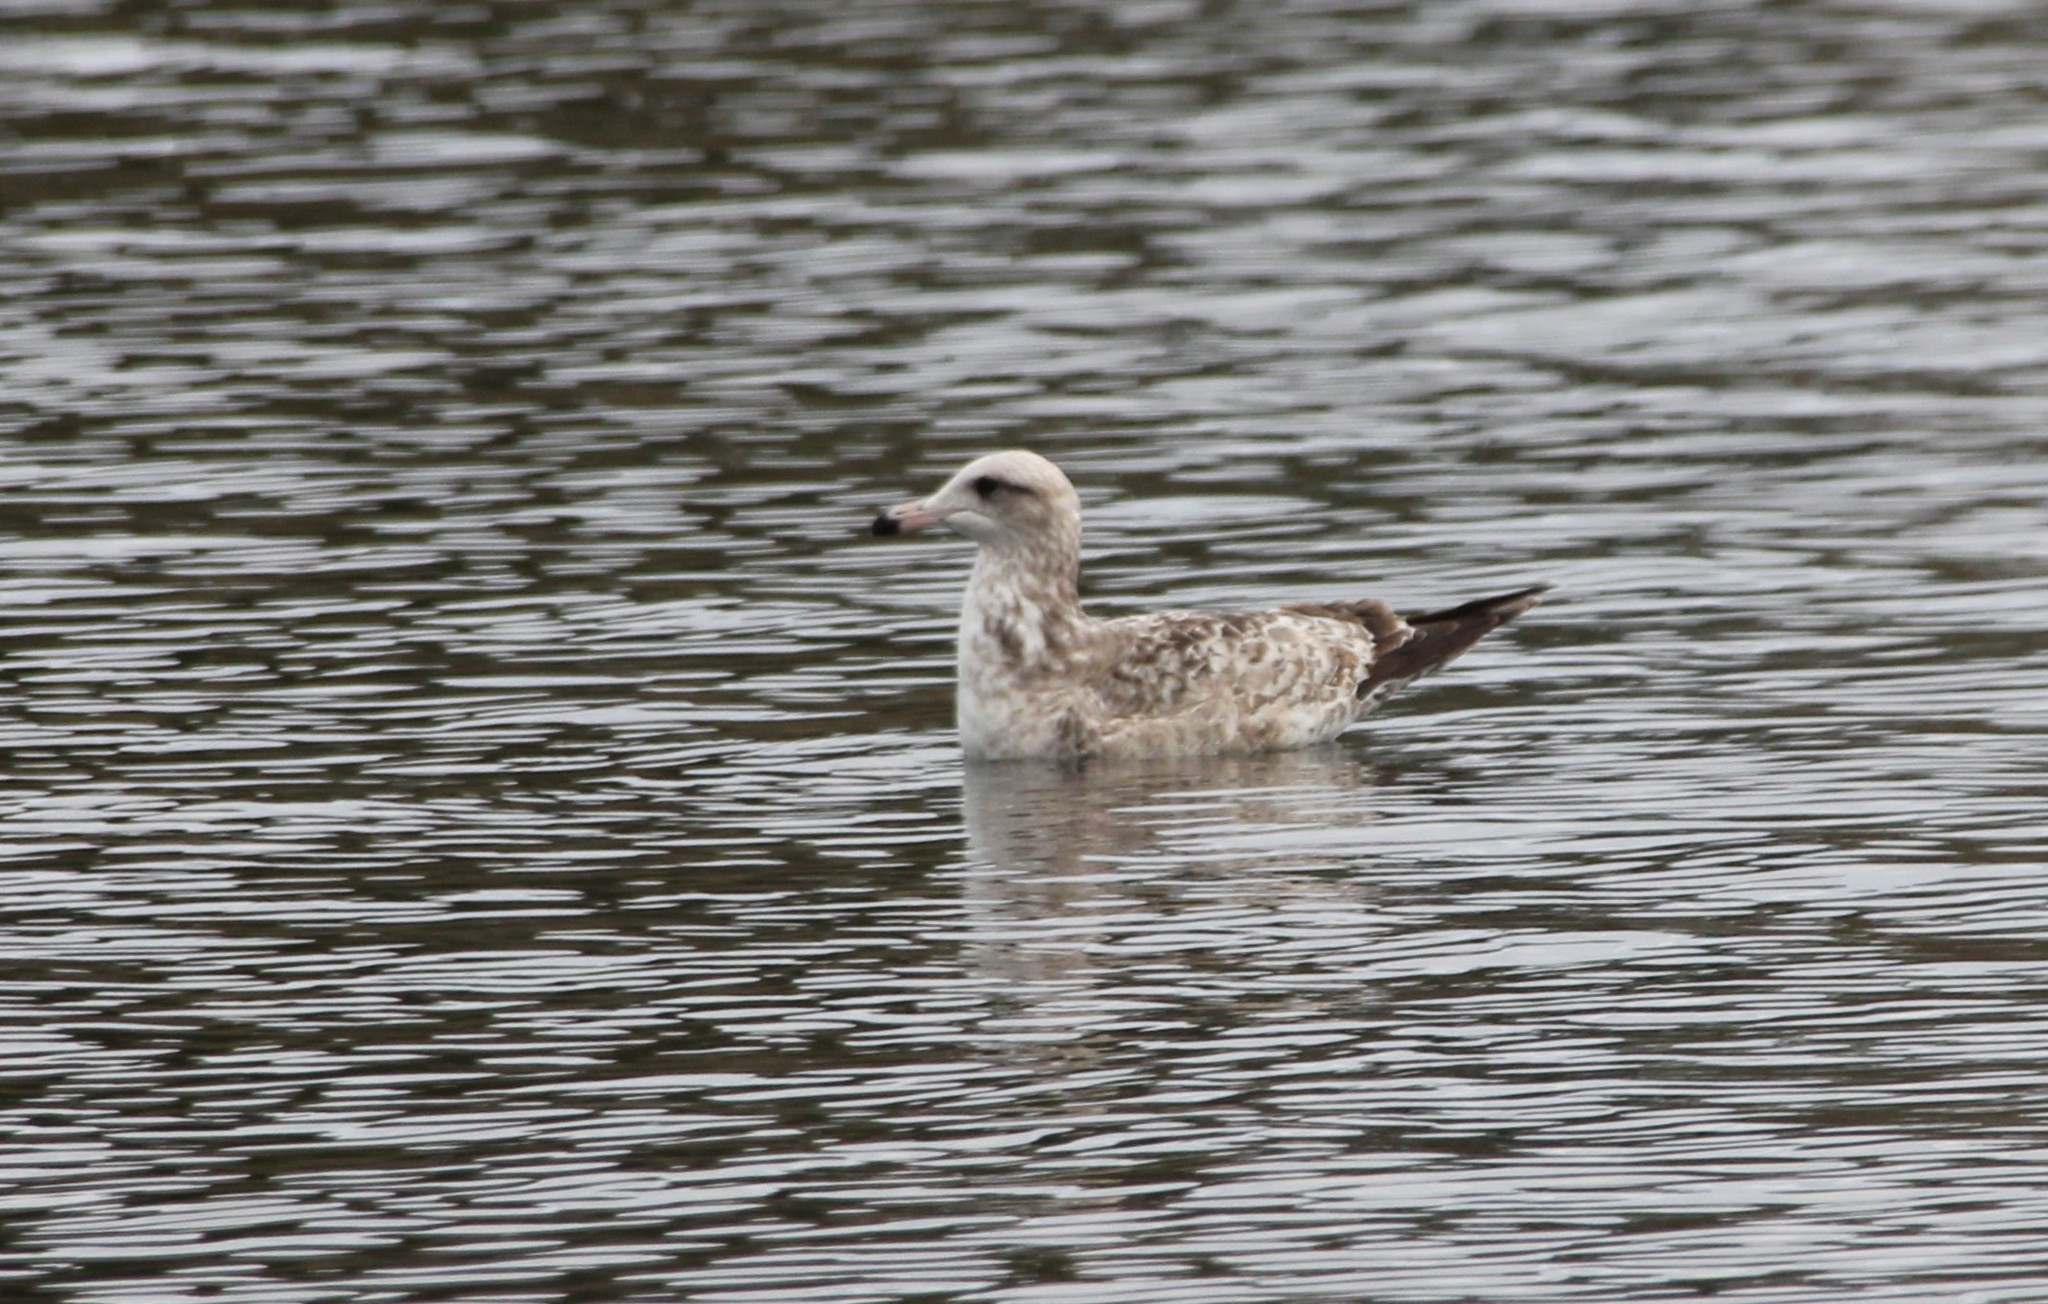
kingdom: Animalia
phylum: Chordata
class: Aves
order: Charadriiformes
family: Laridae
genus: Larus
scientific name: Larus californicus
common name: California gull
